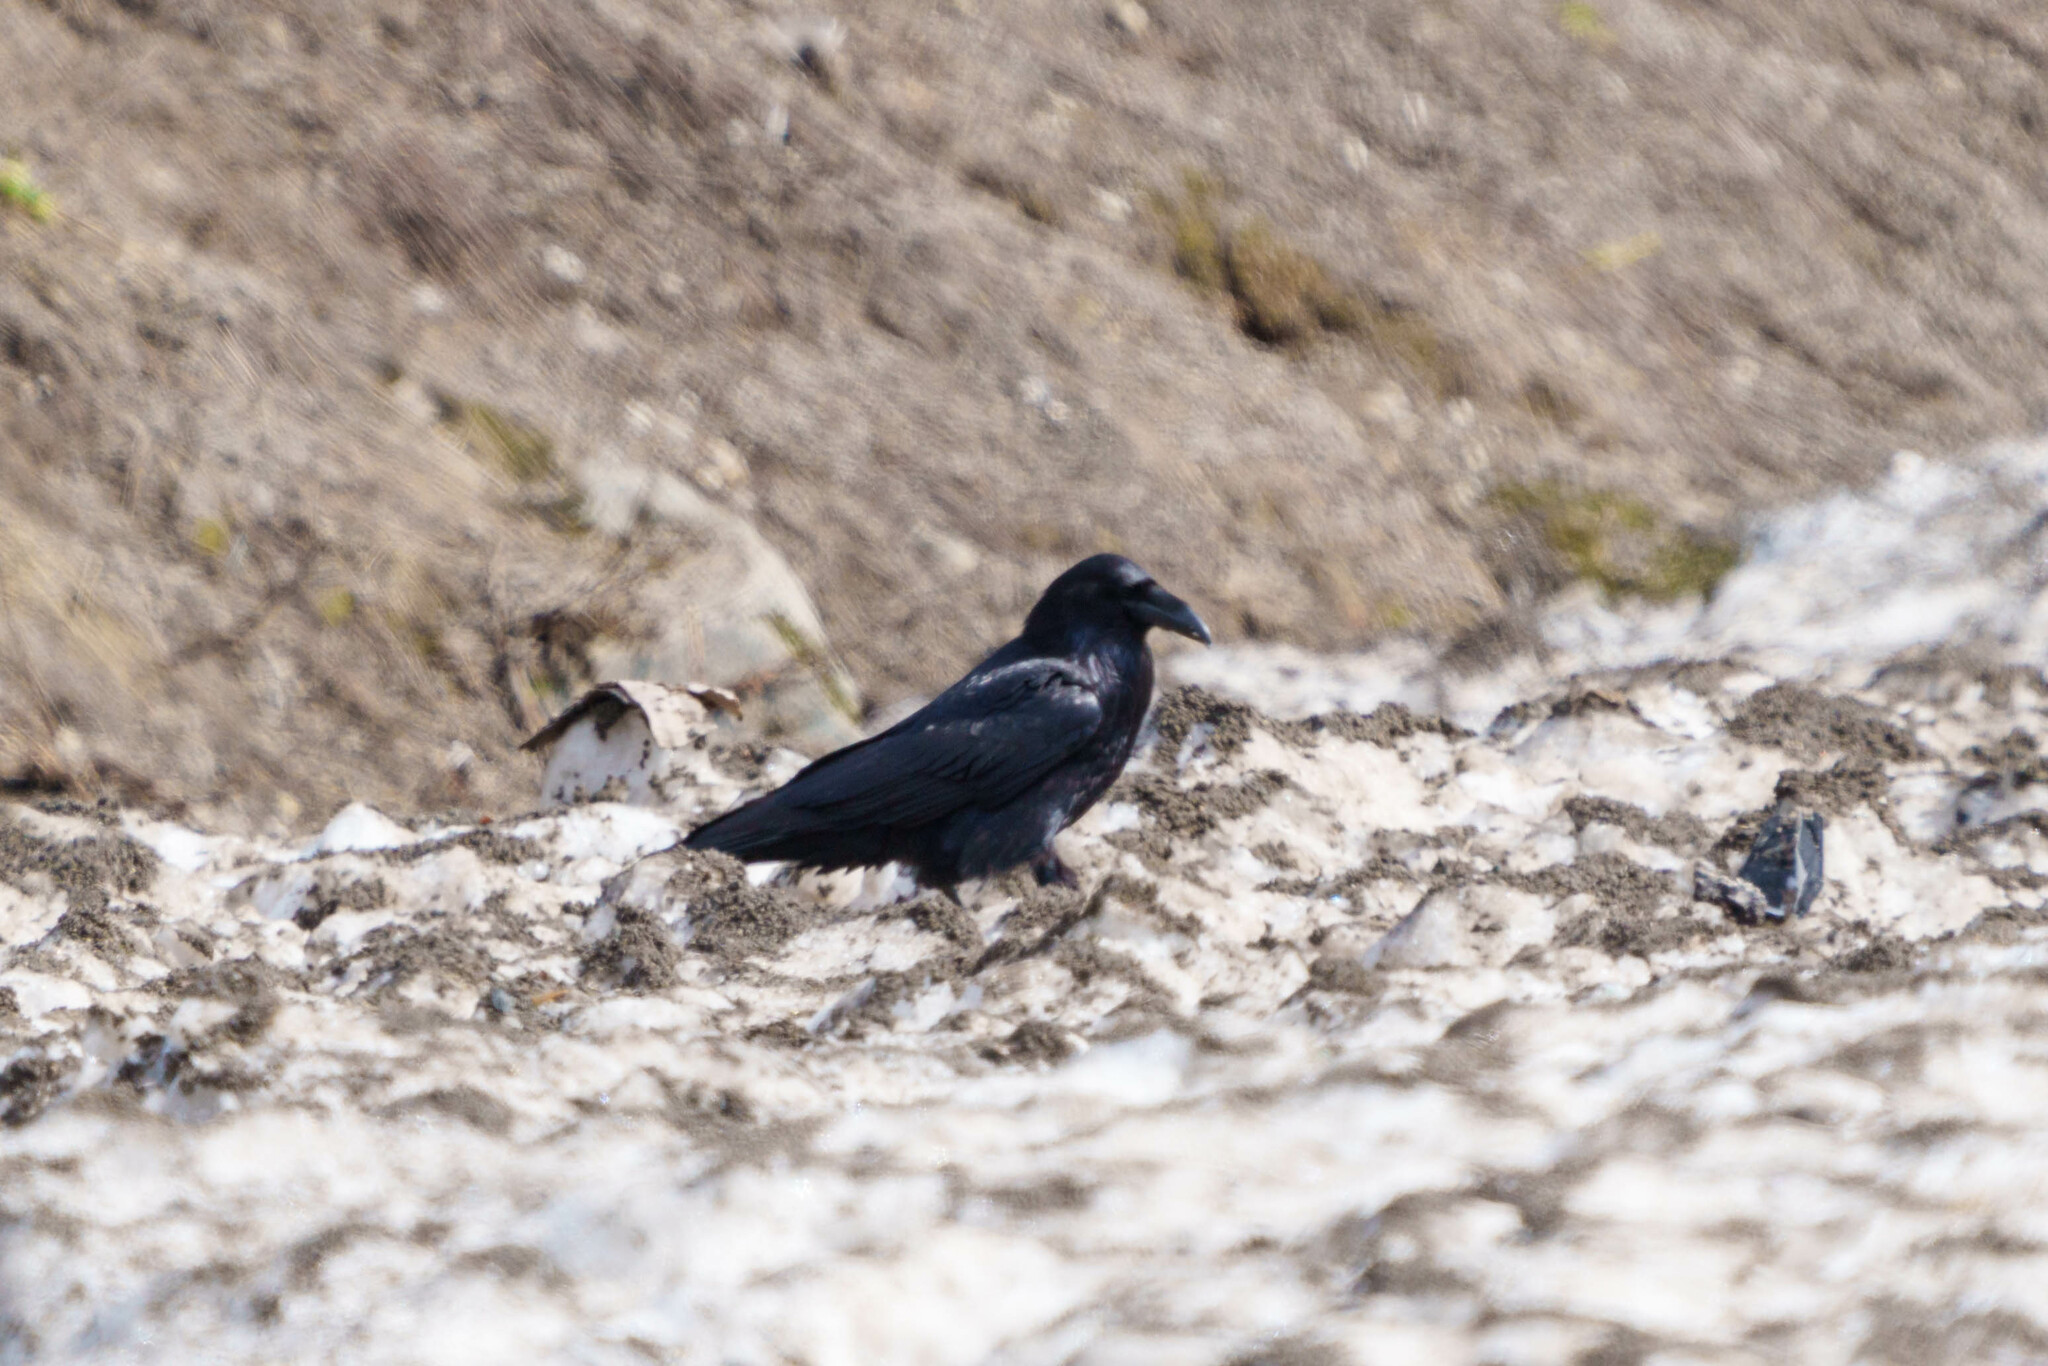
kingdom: Animalia
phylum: Chordata
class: Aves
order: Passeriformes
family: Corvidae
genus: Corvus
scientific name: Corvus corax
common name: Common raven
